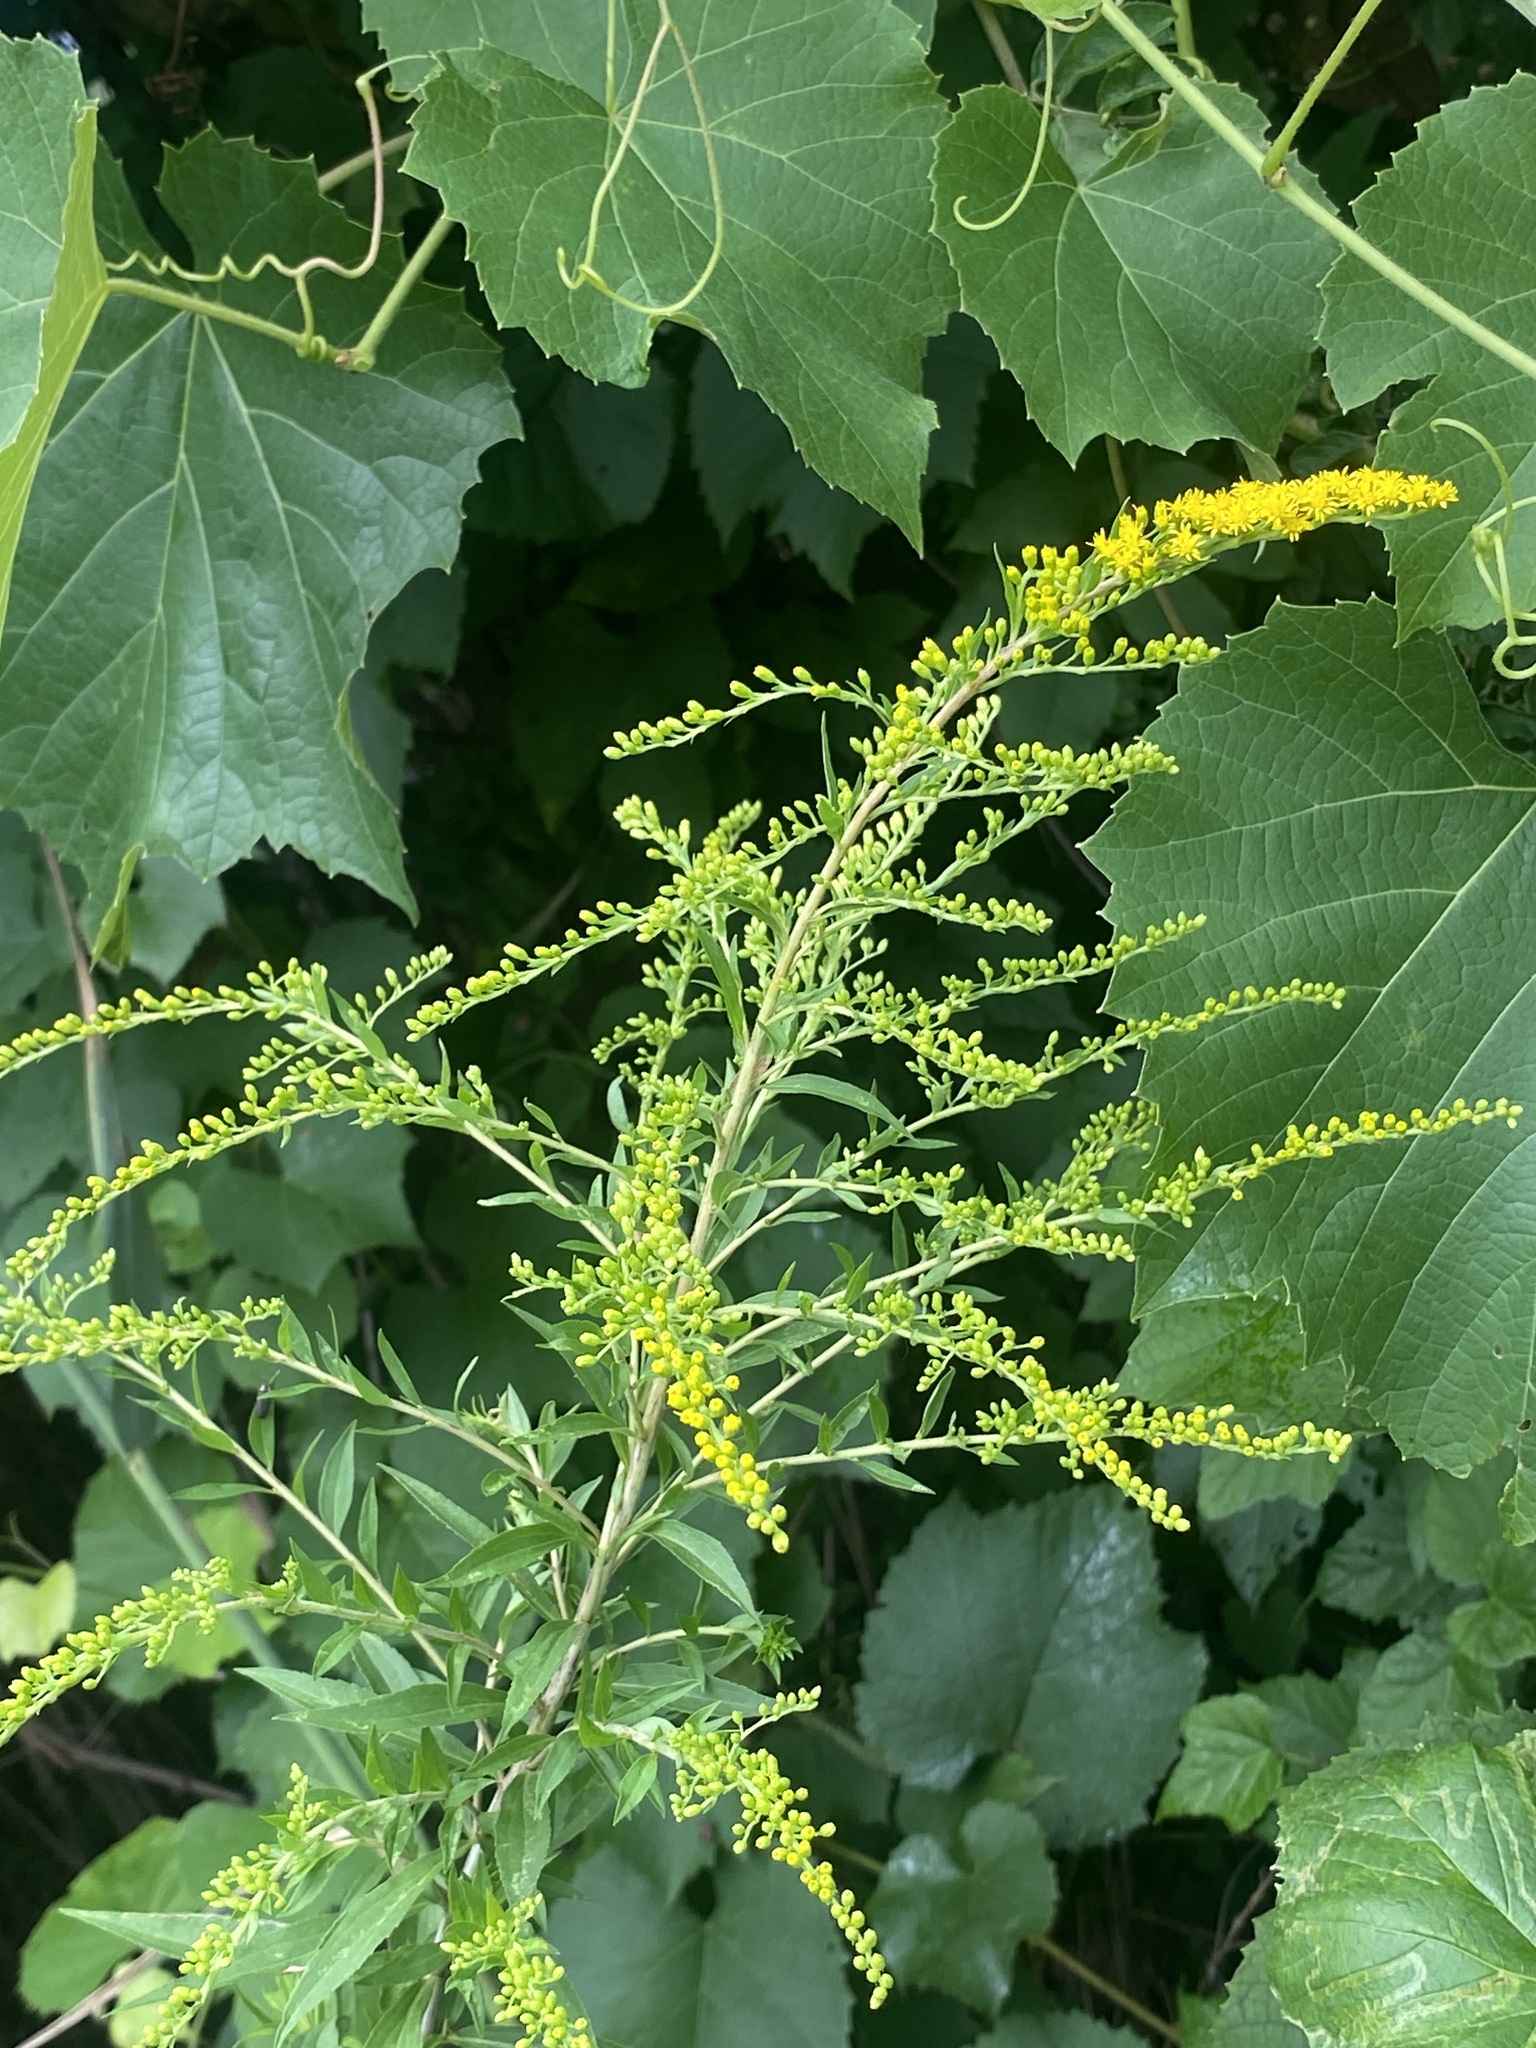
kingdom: Plantae
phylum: Tracheophyta
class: Magnoliopsida
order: Asterales
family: Asteraceae
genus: Solidago
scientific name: Solidago gigantea
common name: Giant goldenrod
